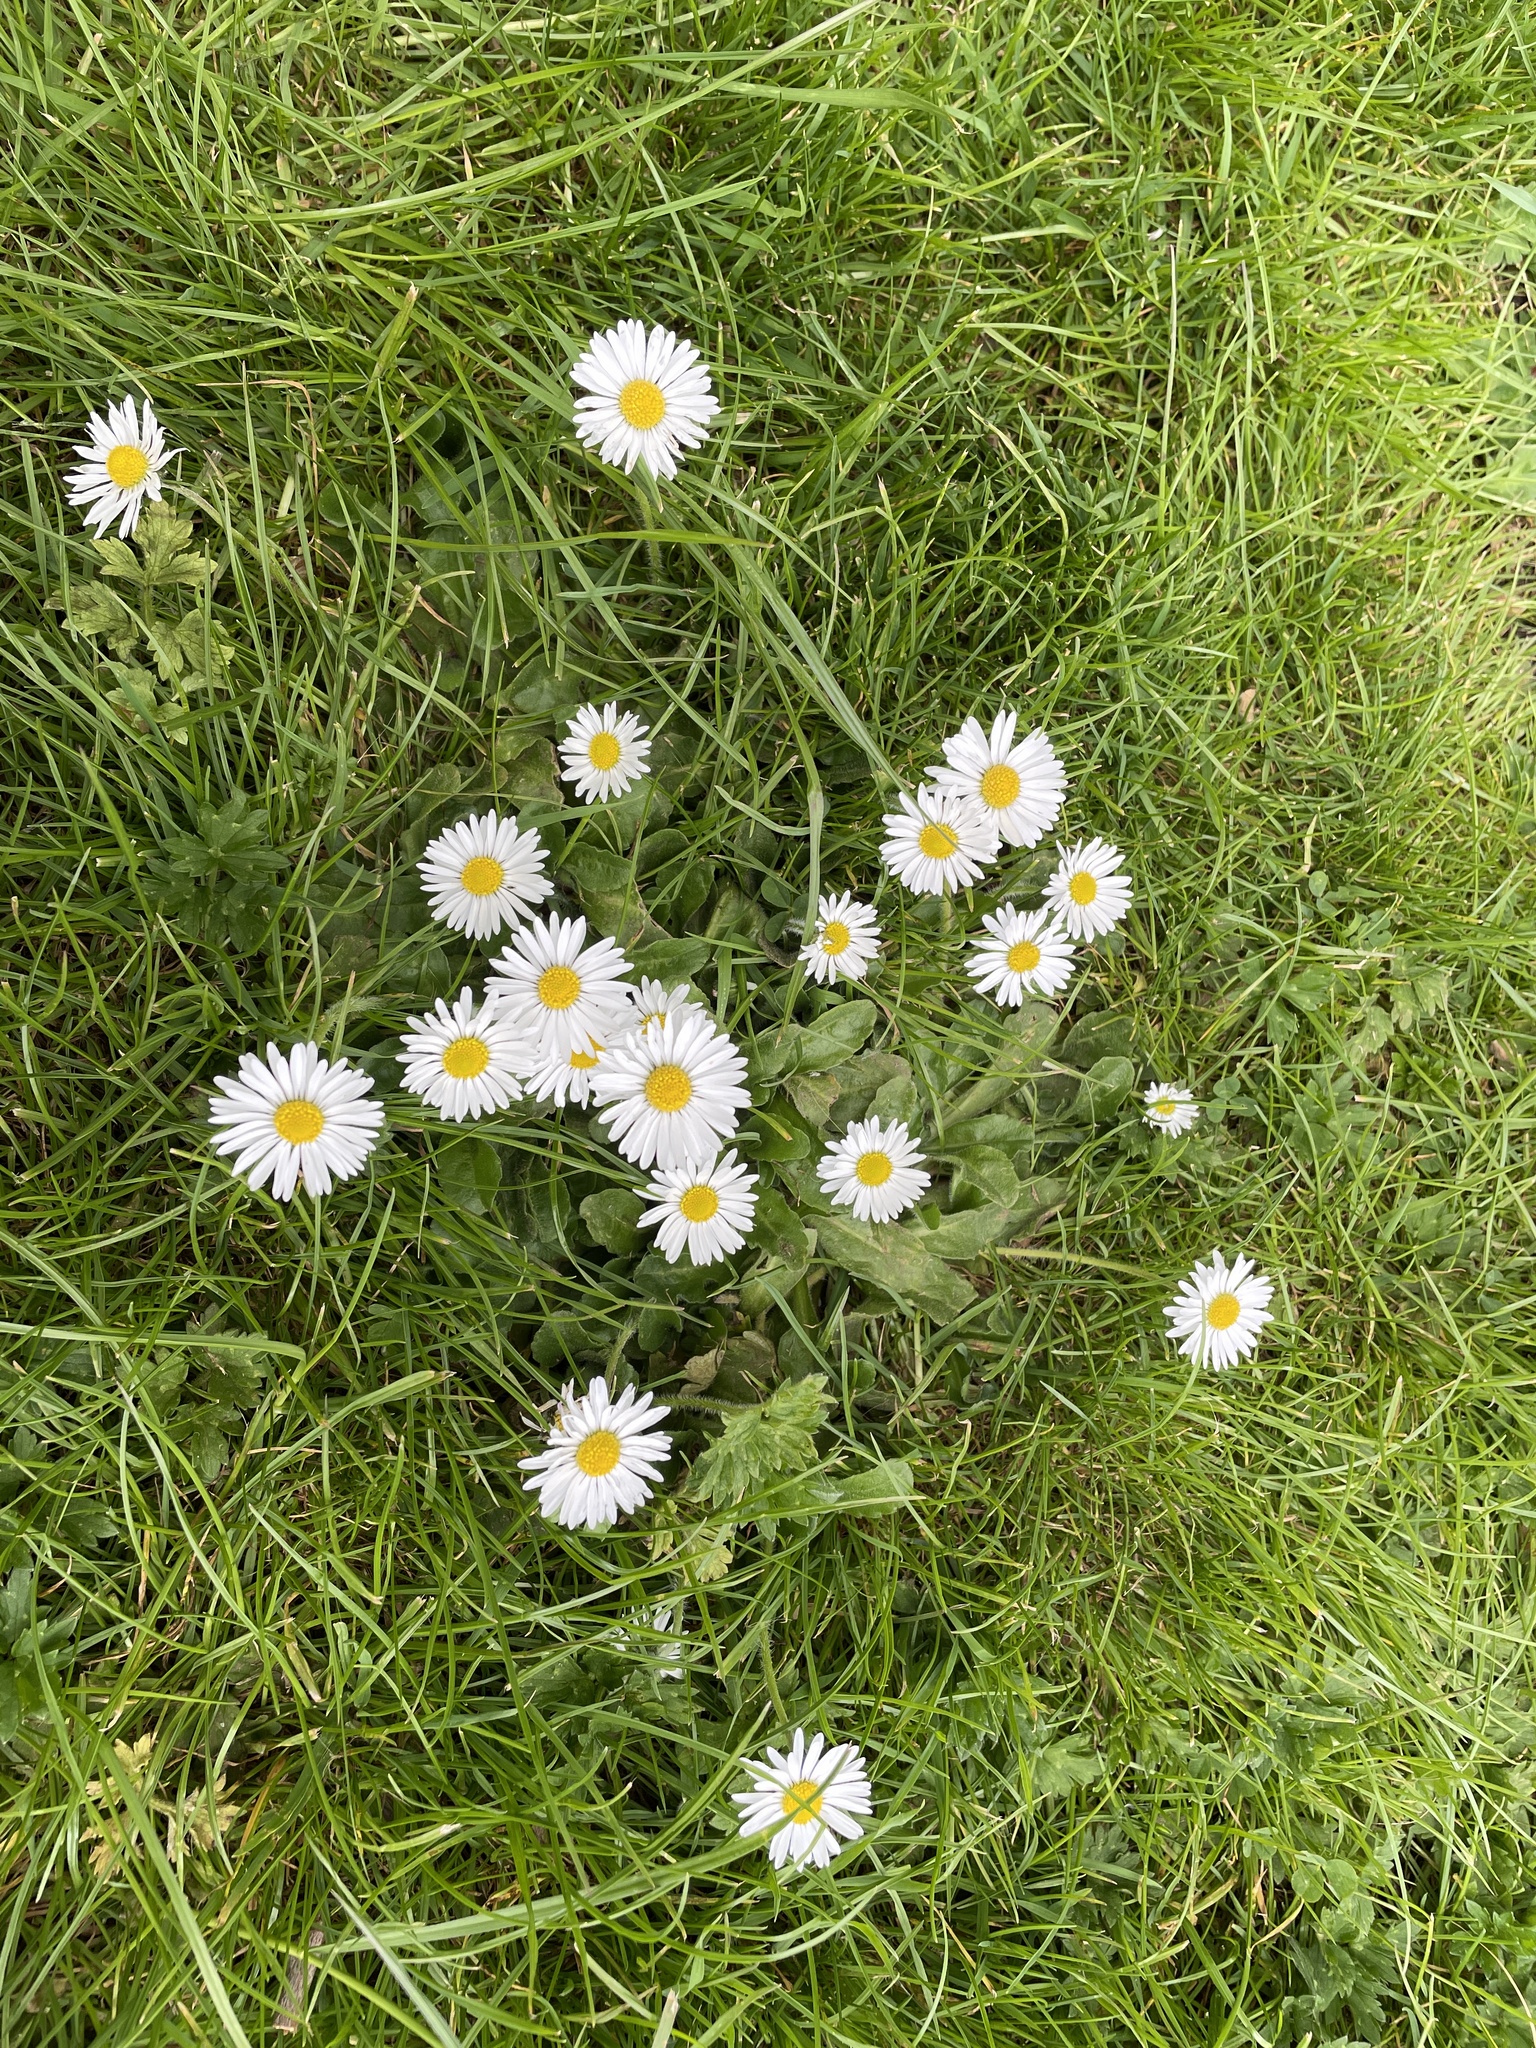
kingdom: Plantae
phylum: Tracheophyta
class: Magnoliopsida
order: Asterales
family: Asteraceae
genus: Bellis
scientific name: Bellis perennis
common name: Lawndaisy
